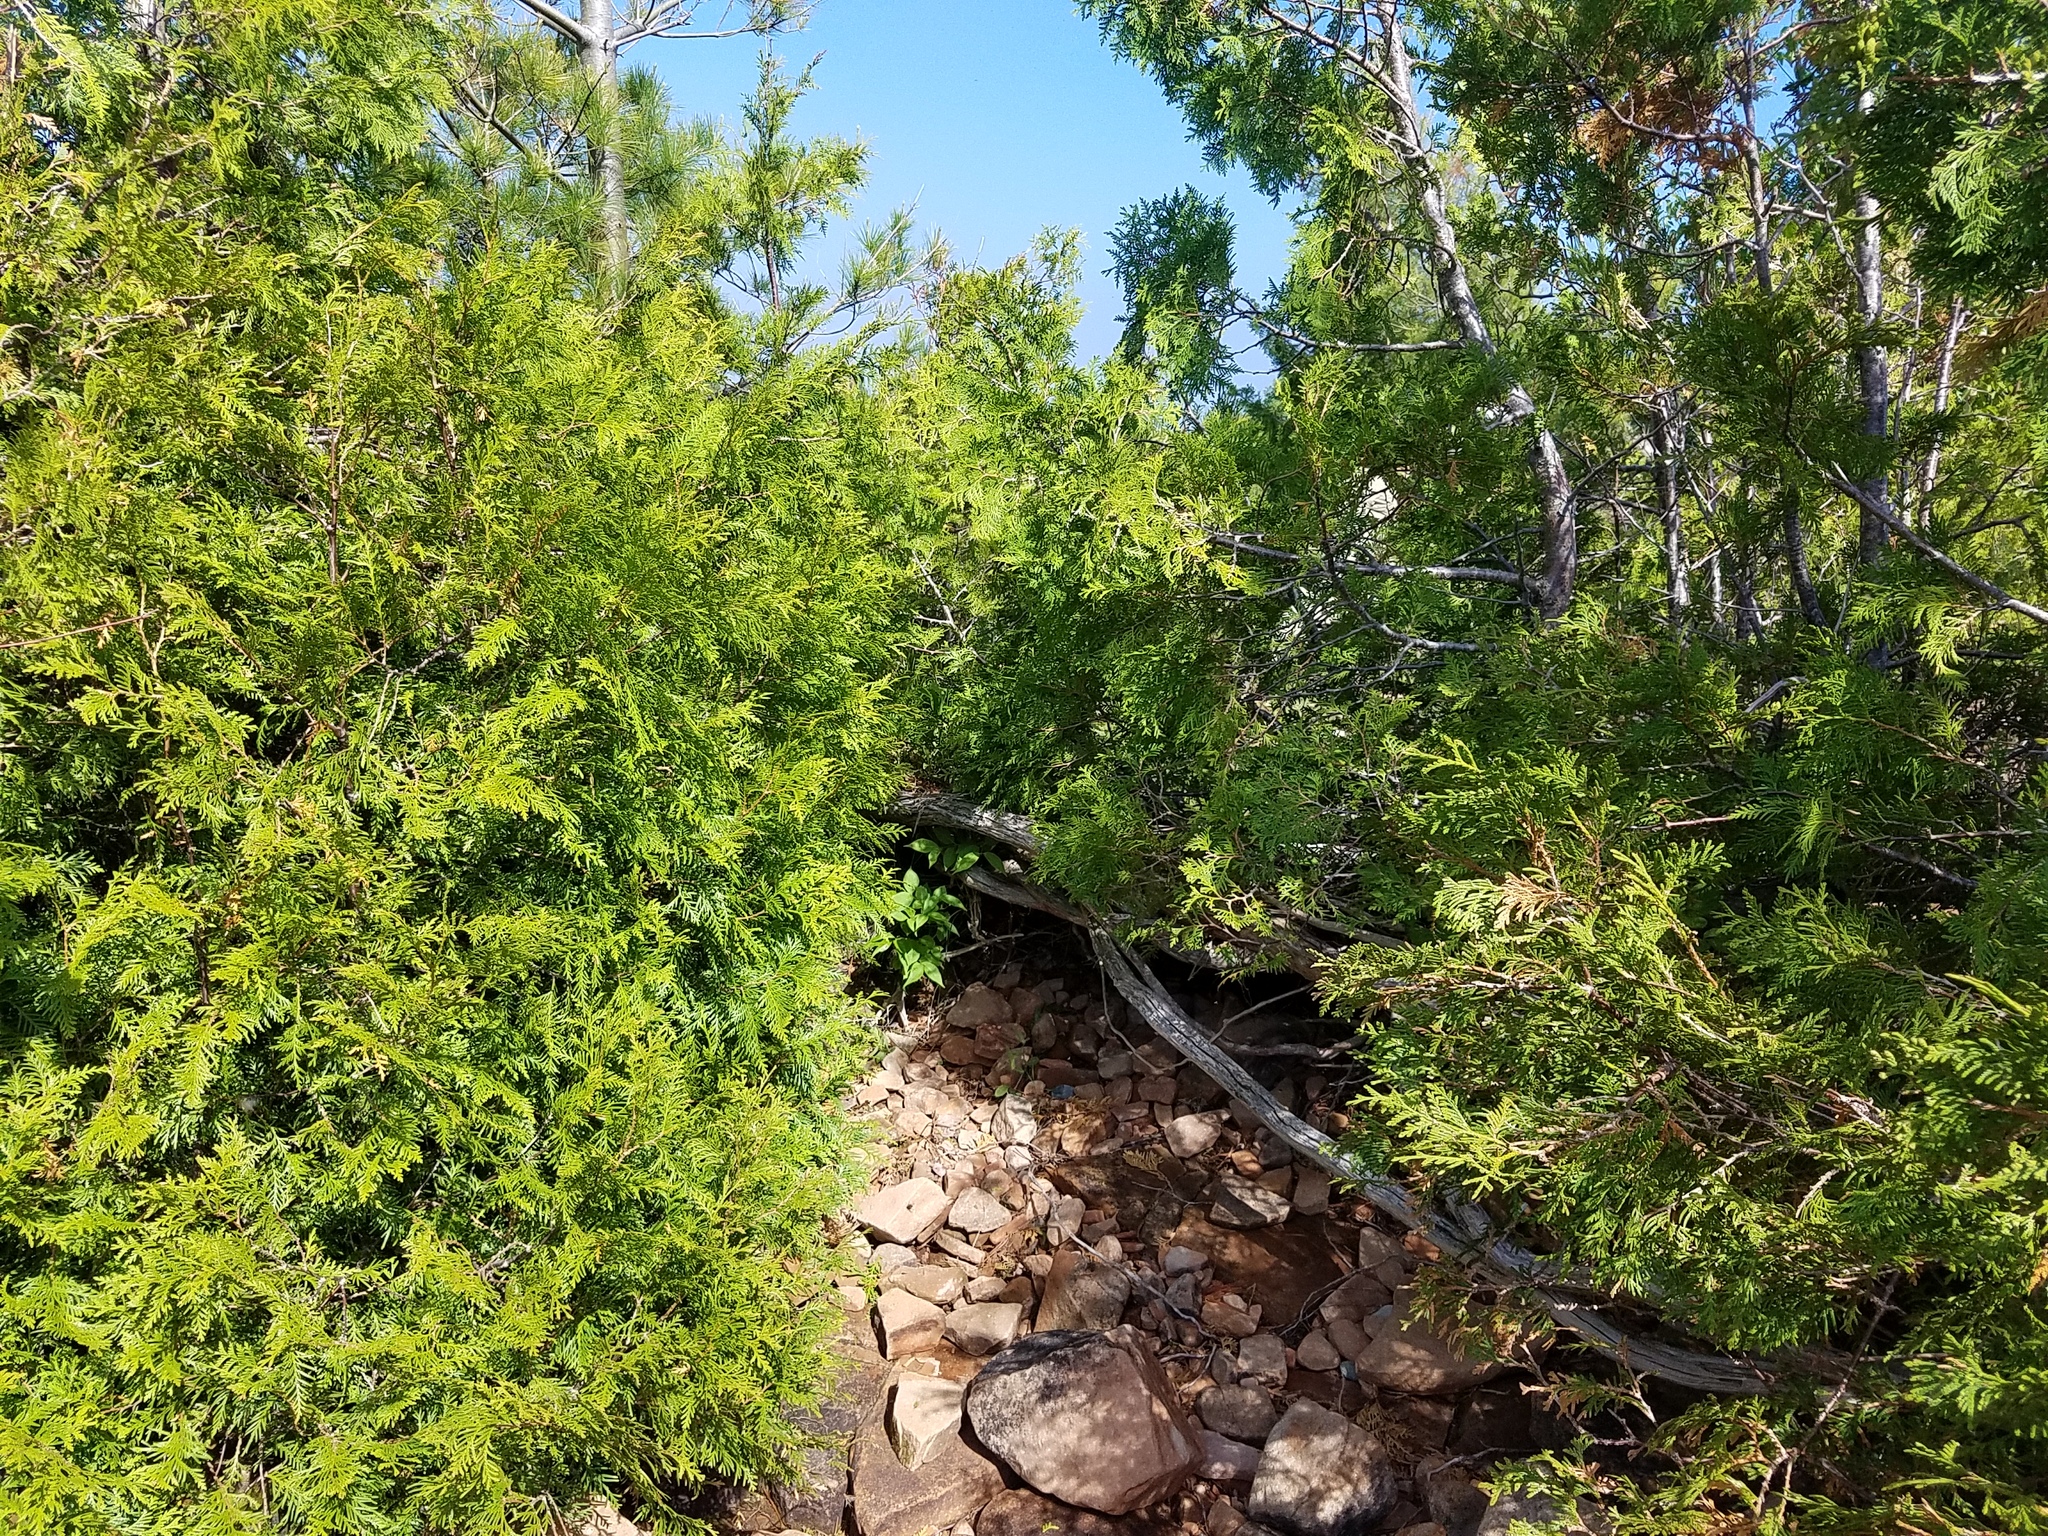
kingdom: Plantae
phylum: Tracheophyta
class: Pinopsida
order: Pinales
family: Cupressaceae
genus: Thuja
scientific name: Thuja occidentalis
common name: Northern white-cedar
